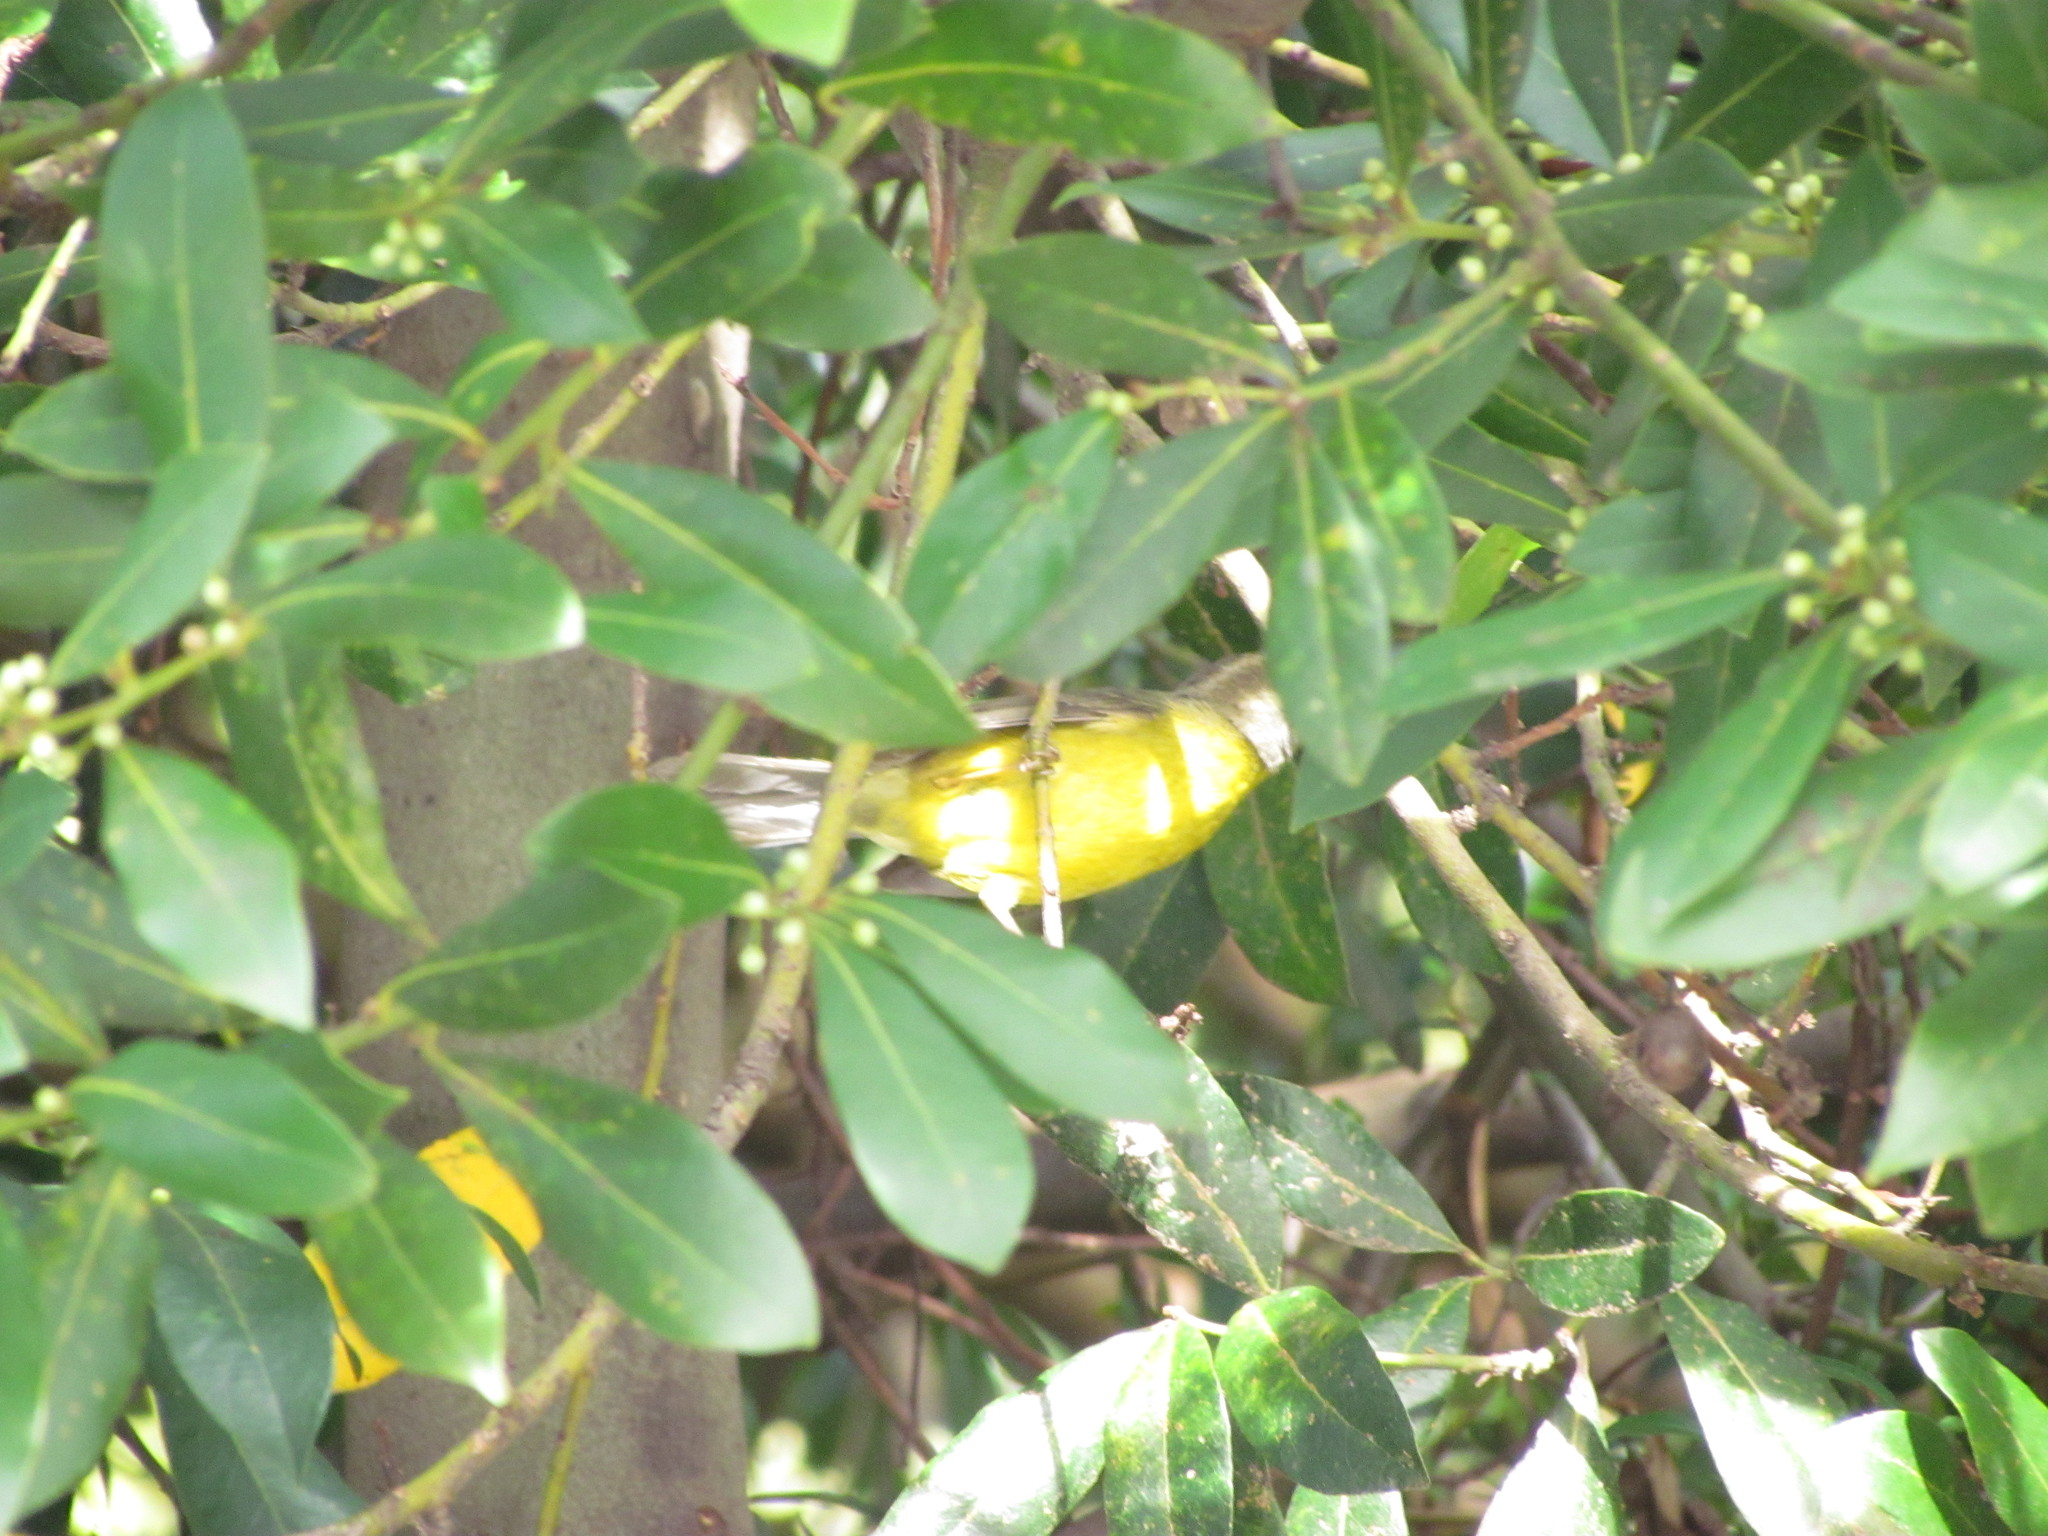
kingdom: Animalia
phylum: Chordata
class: Aves
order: Passeriformes
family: Parulidae
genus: Basileuterus
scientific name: Basileuterus culicivorus
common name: Golden-crowned warbler
